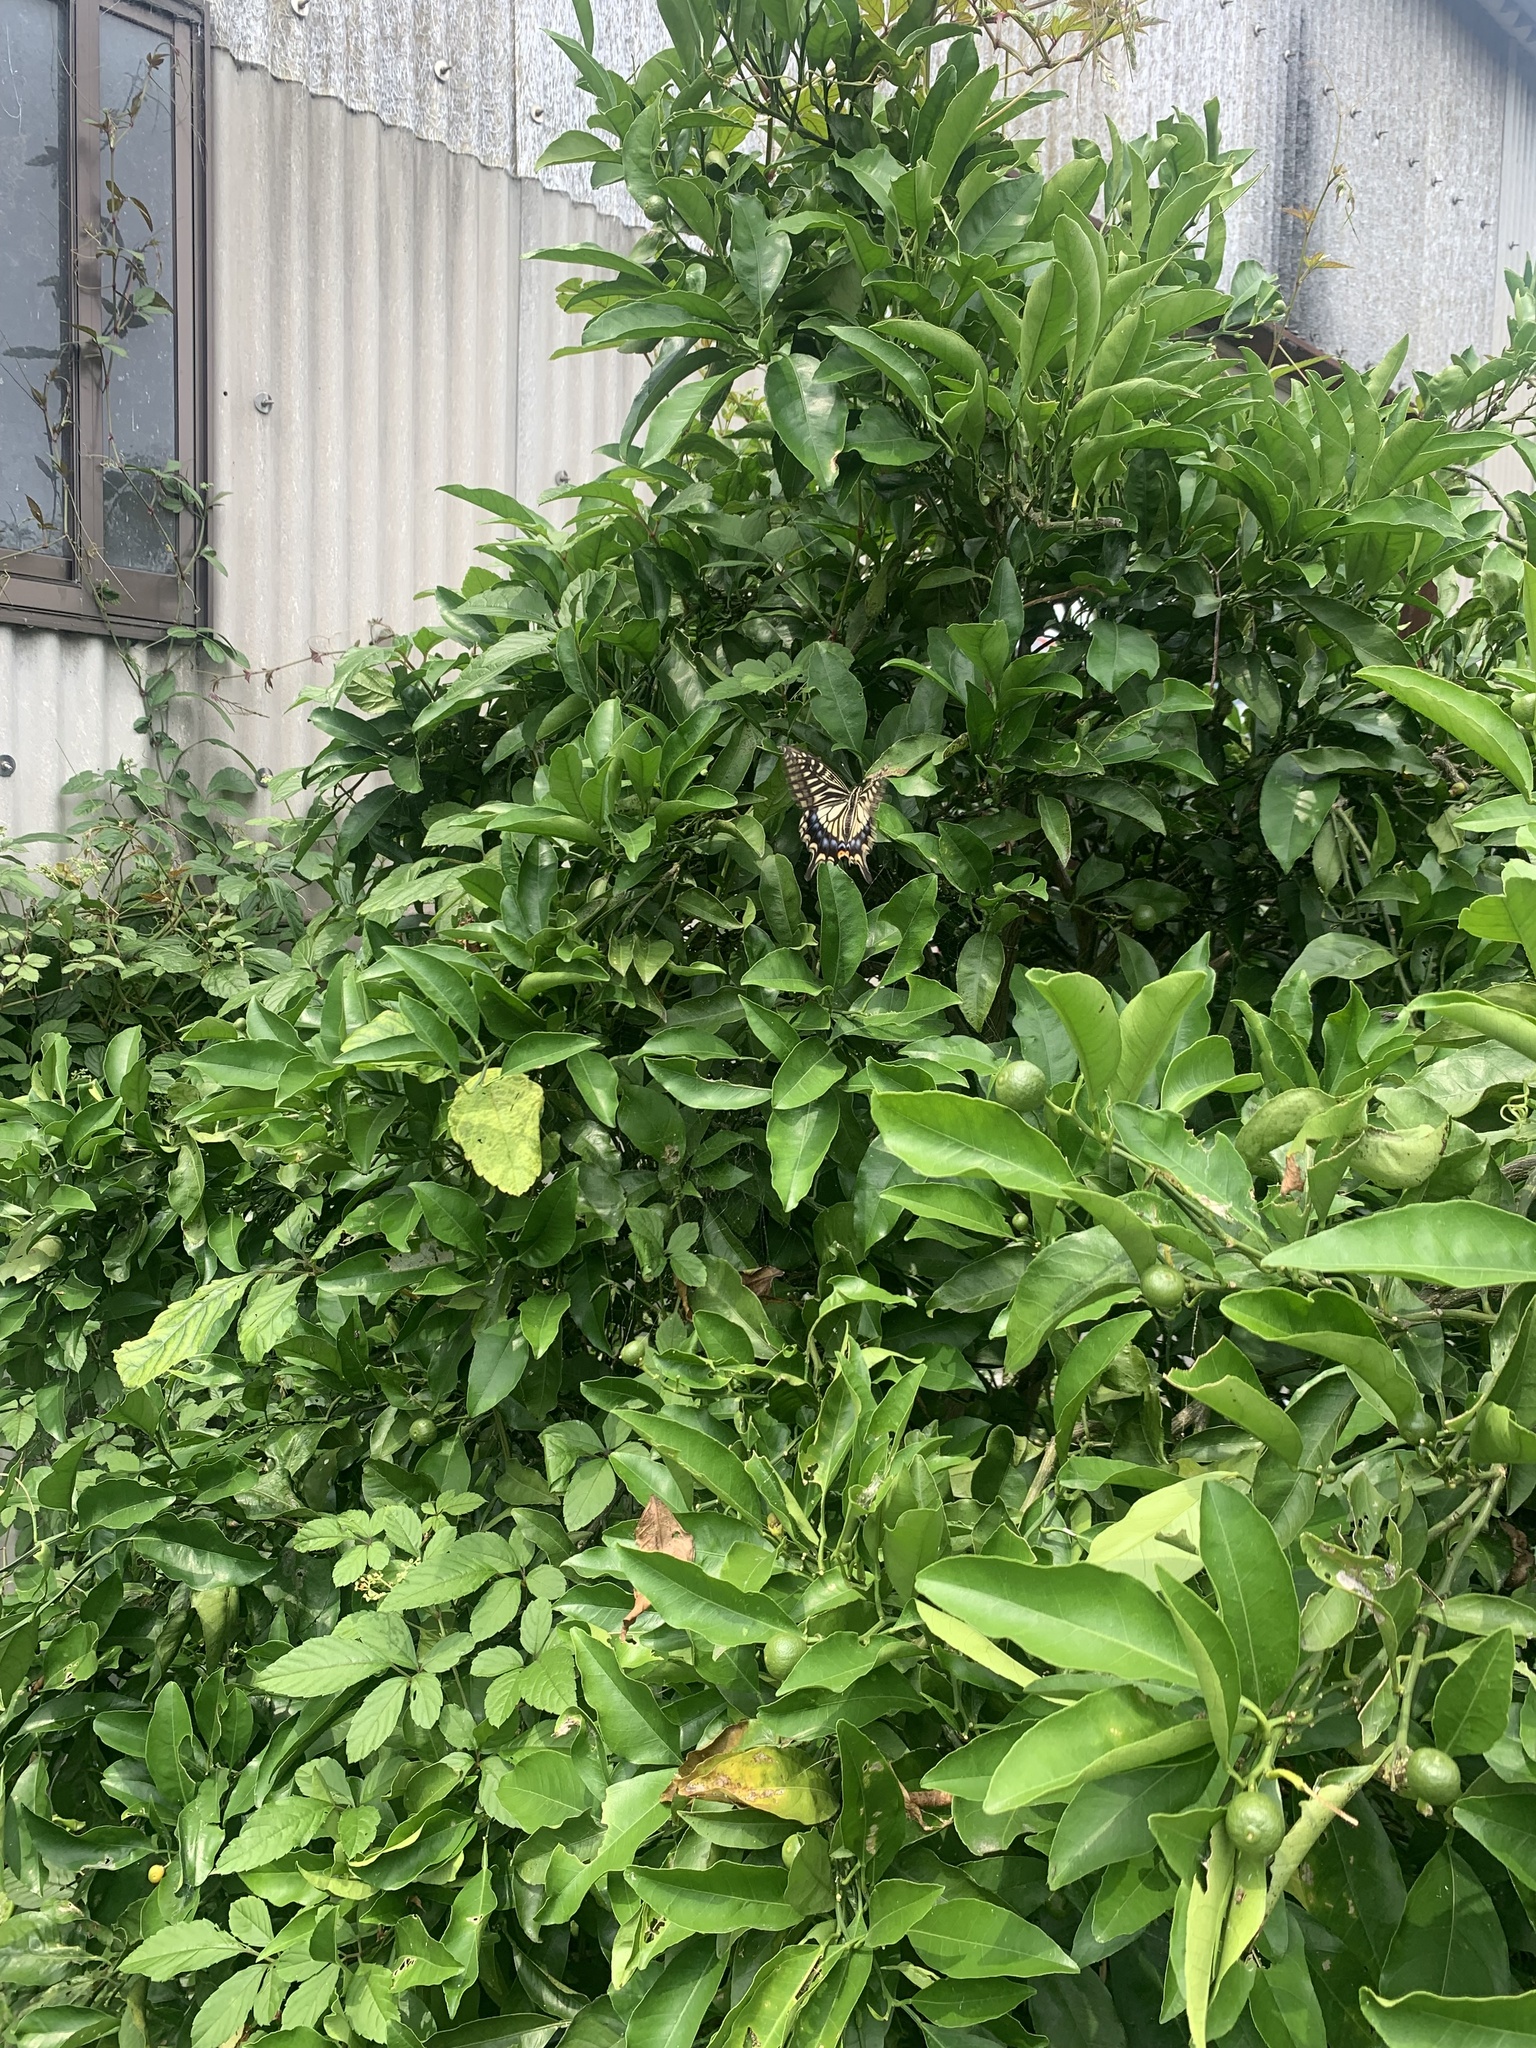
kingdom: Animalia
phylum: Arthropoda
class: Insecta
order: Lepidoptera
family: Papilionidae
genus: Papilio
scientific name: Papilio xuthus
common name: Asian swallowtail
